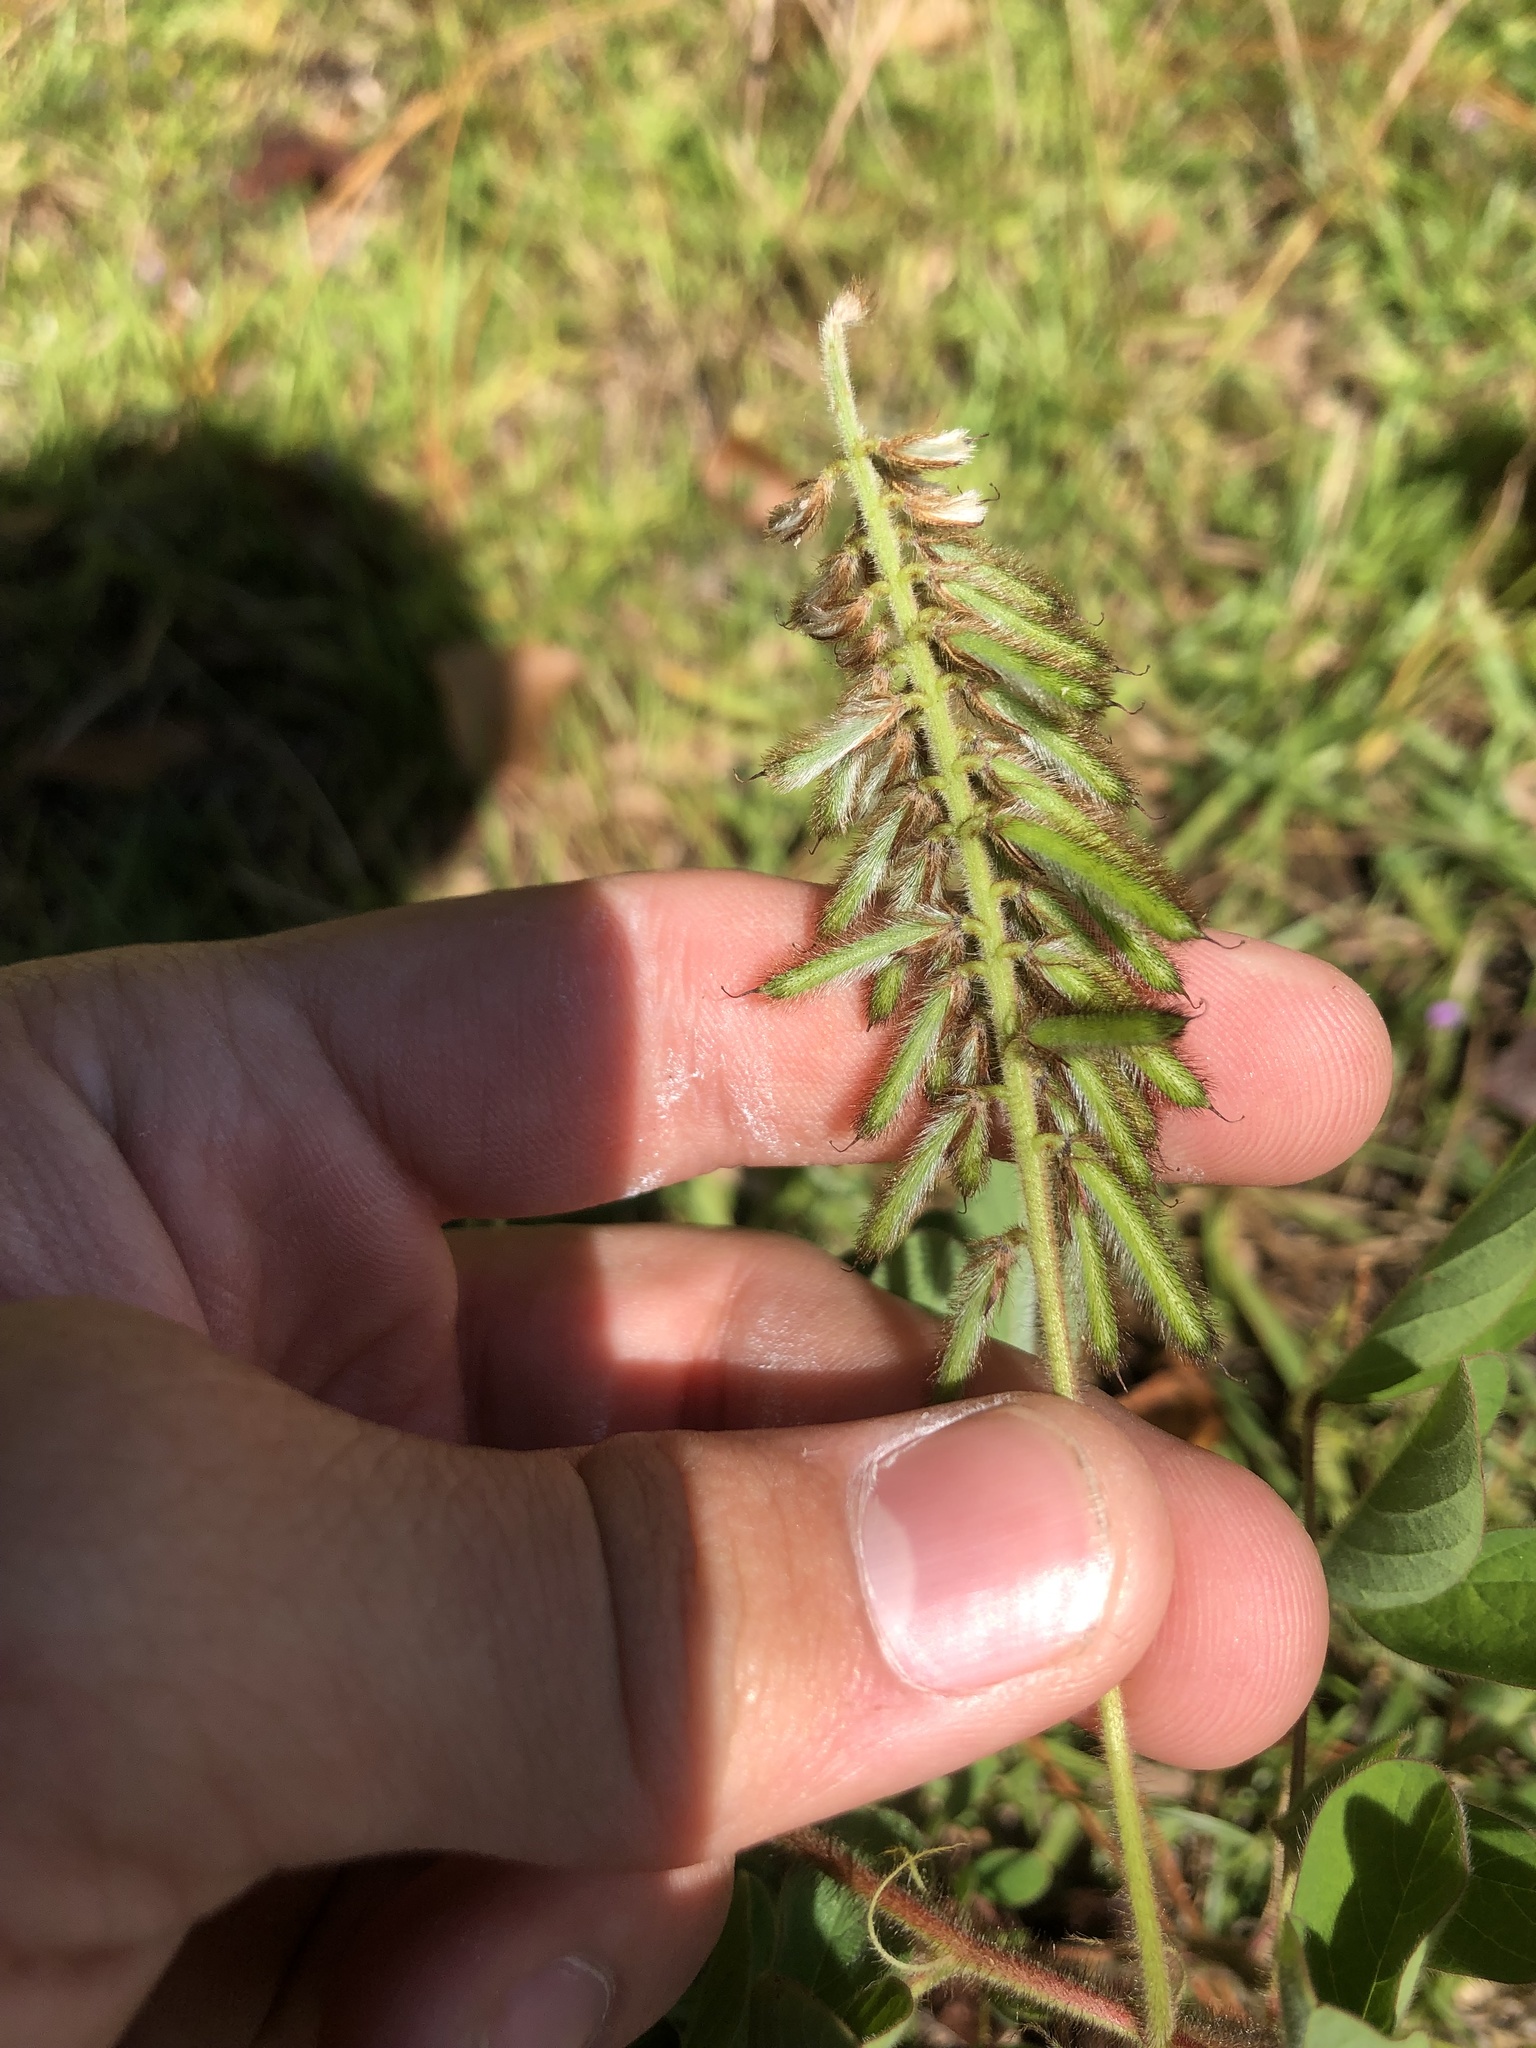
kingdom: Plantae
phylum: Tracheophyta
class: Magnoliopsida
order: Fabales
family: Fabaceae
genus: Indigofera
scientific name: Indigofera hirsuta
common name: Hairy indigo
